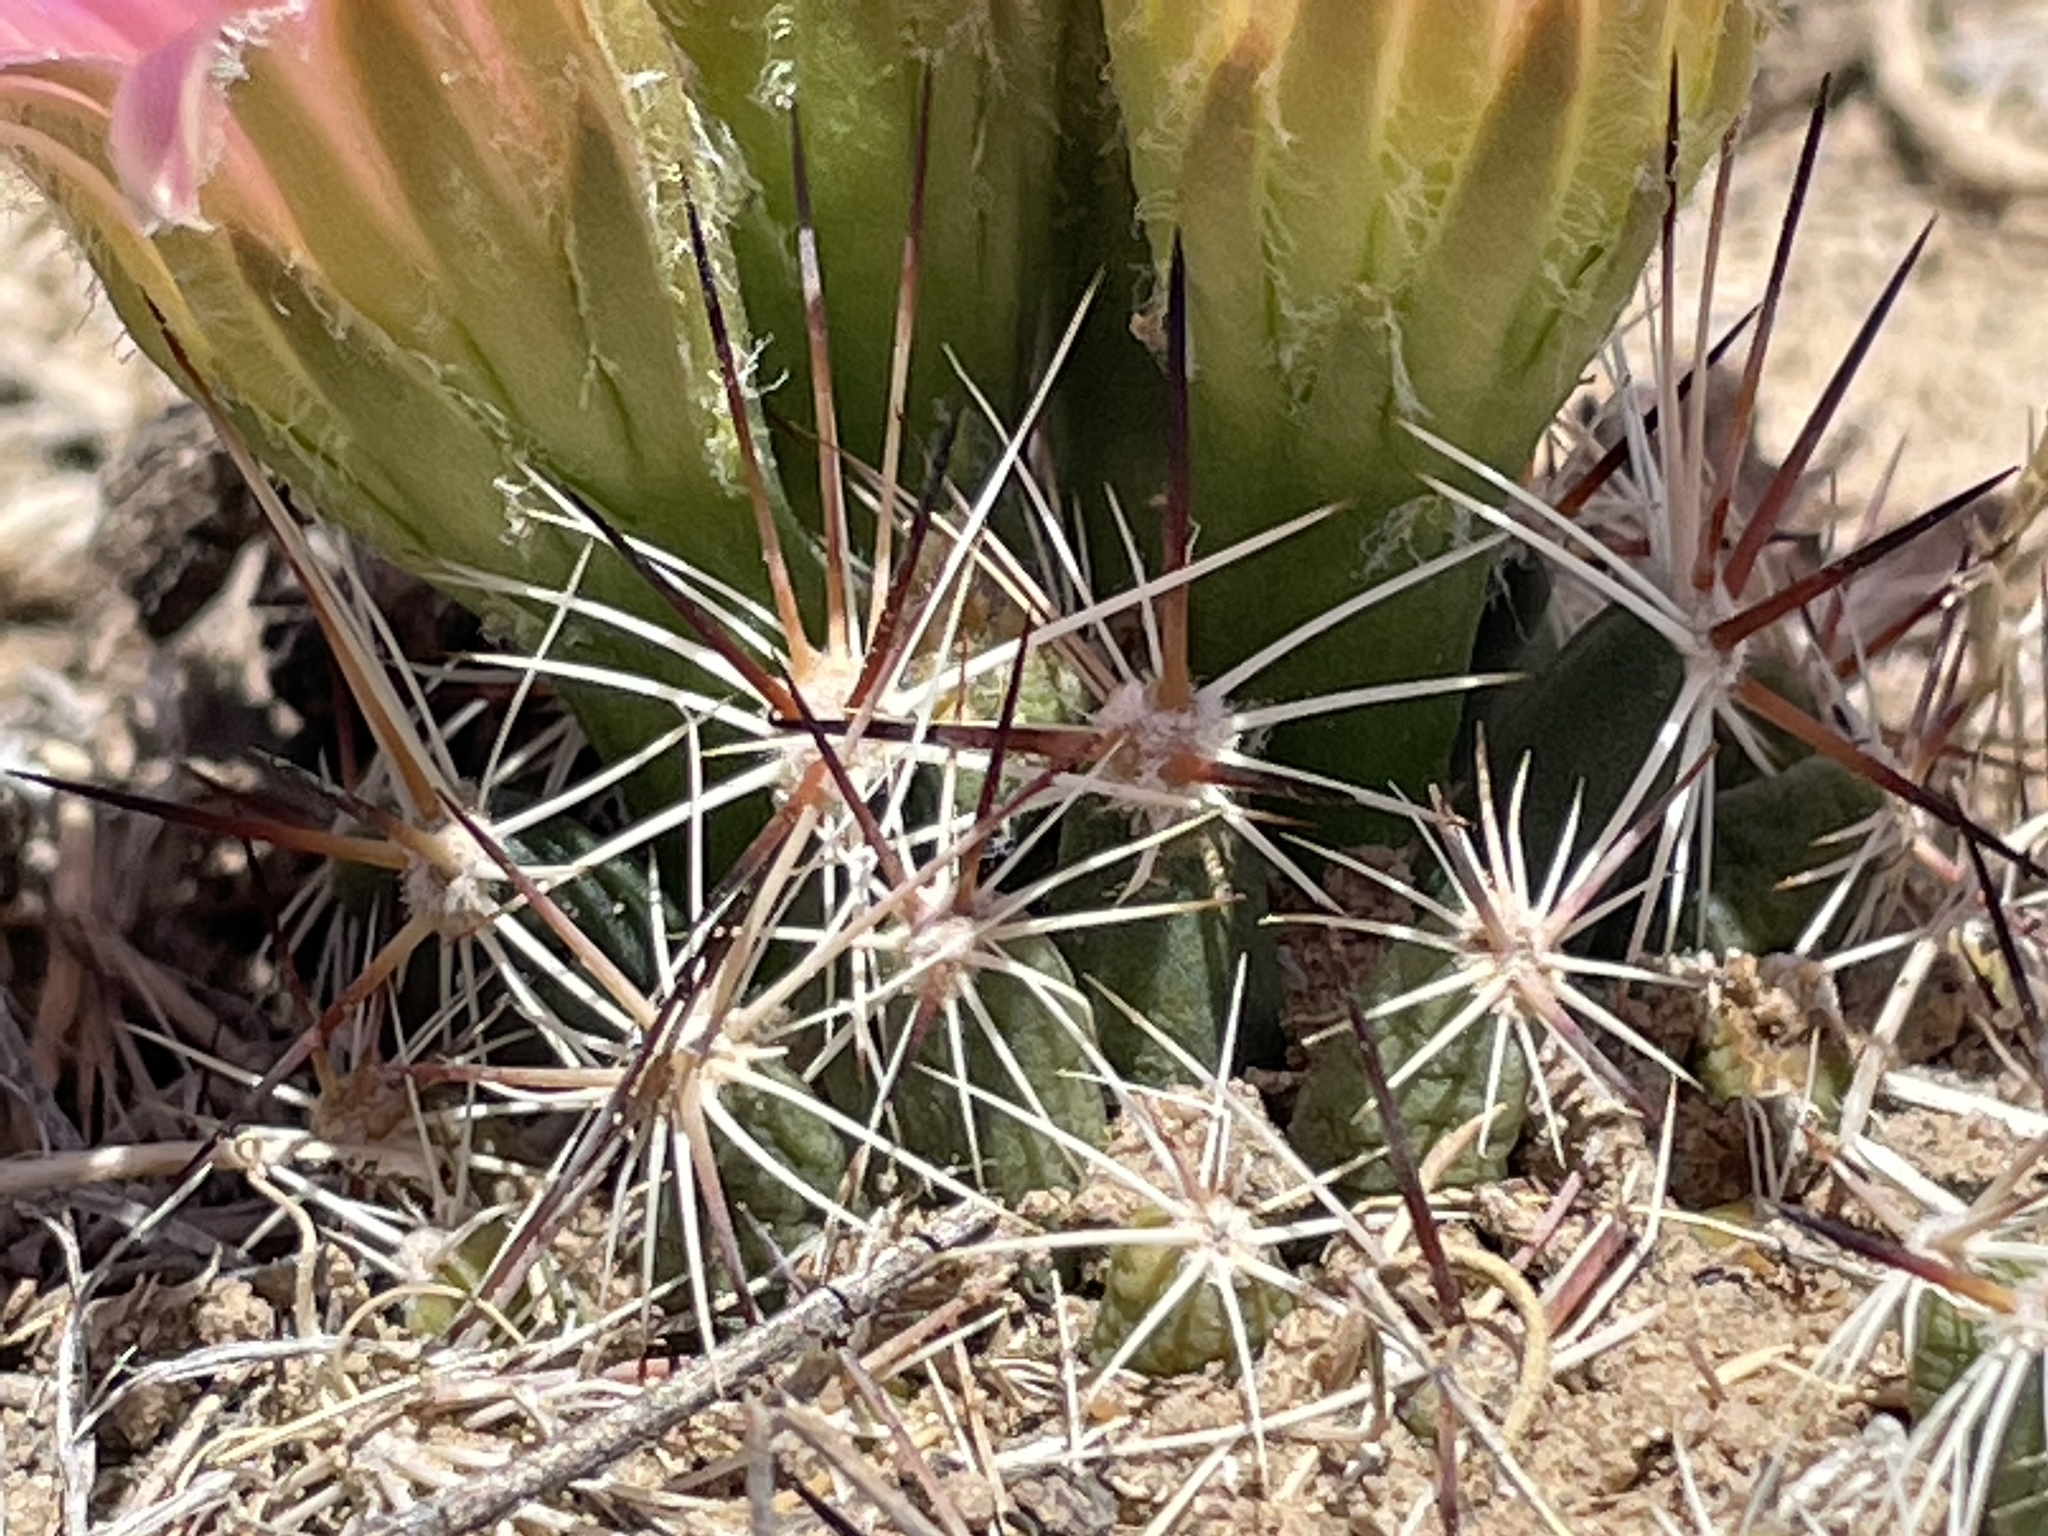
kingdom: Plantae
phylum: Tracheophyta
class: Magnoliopsida
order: Caryophyllales
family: Cactaceae
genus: Pelecyphora
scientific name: Pelecyphora vivipara
